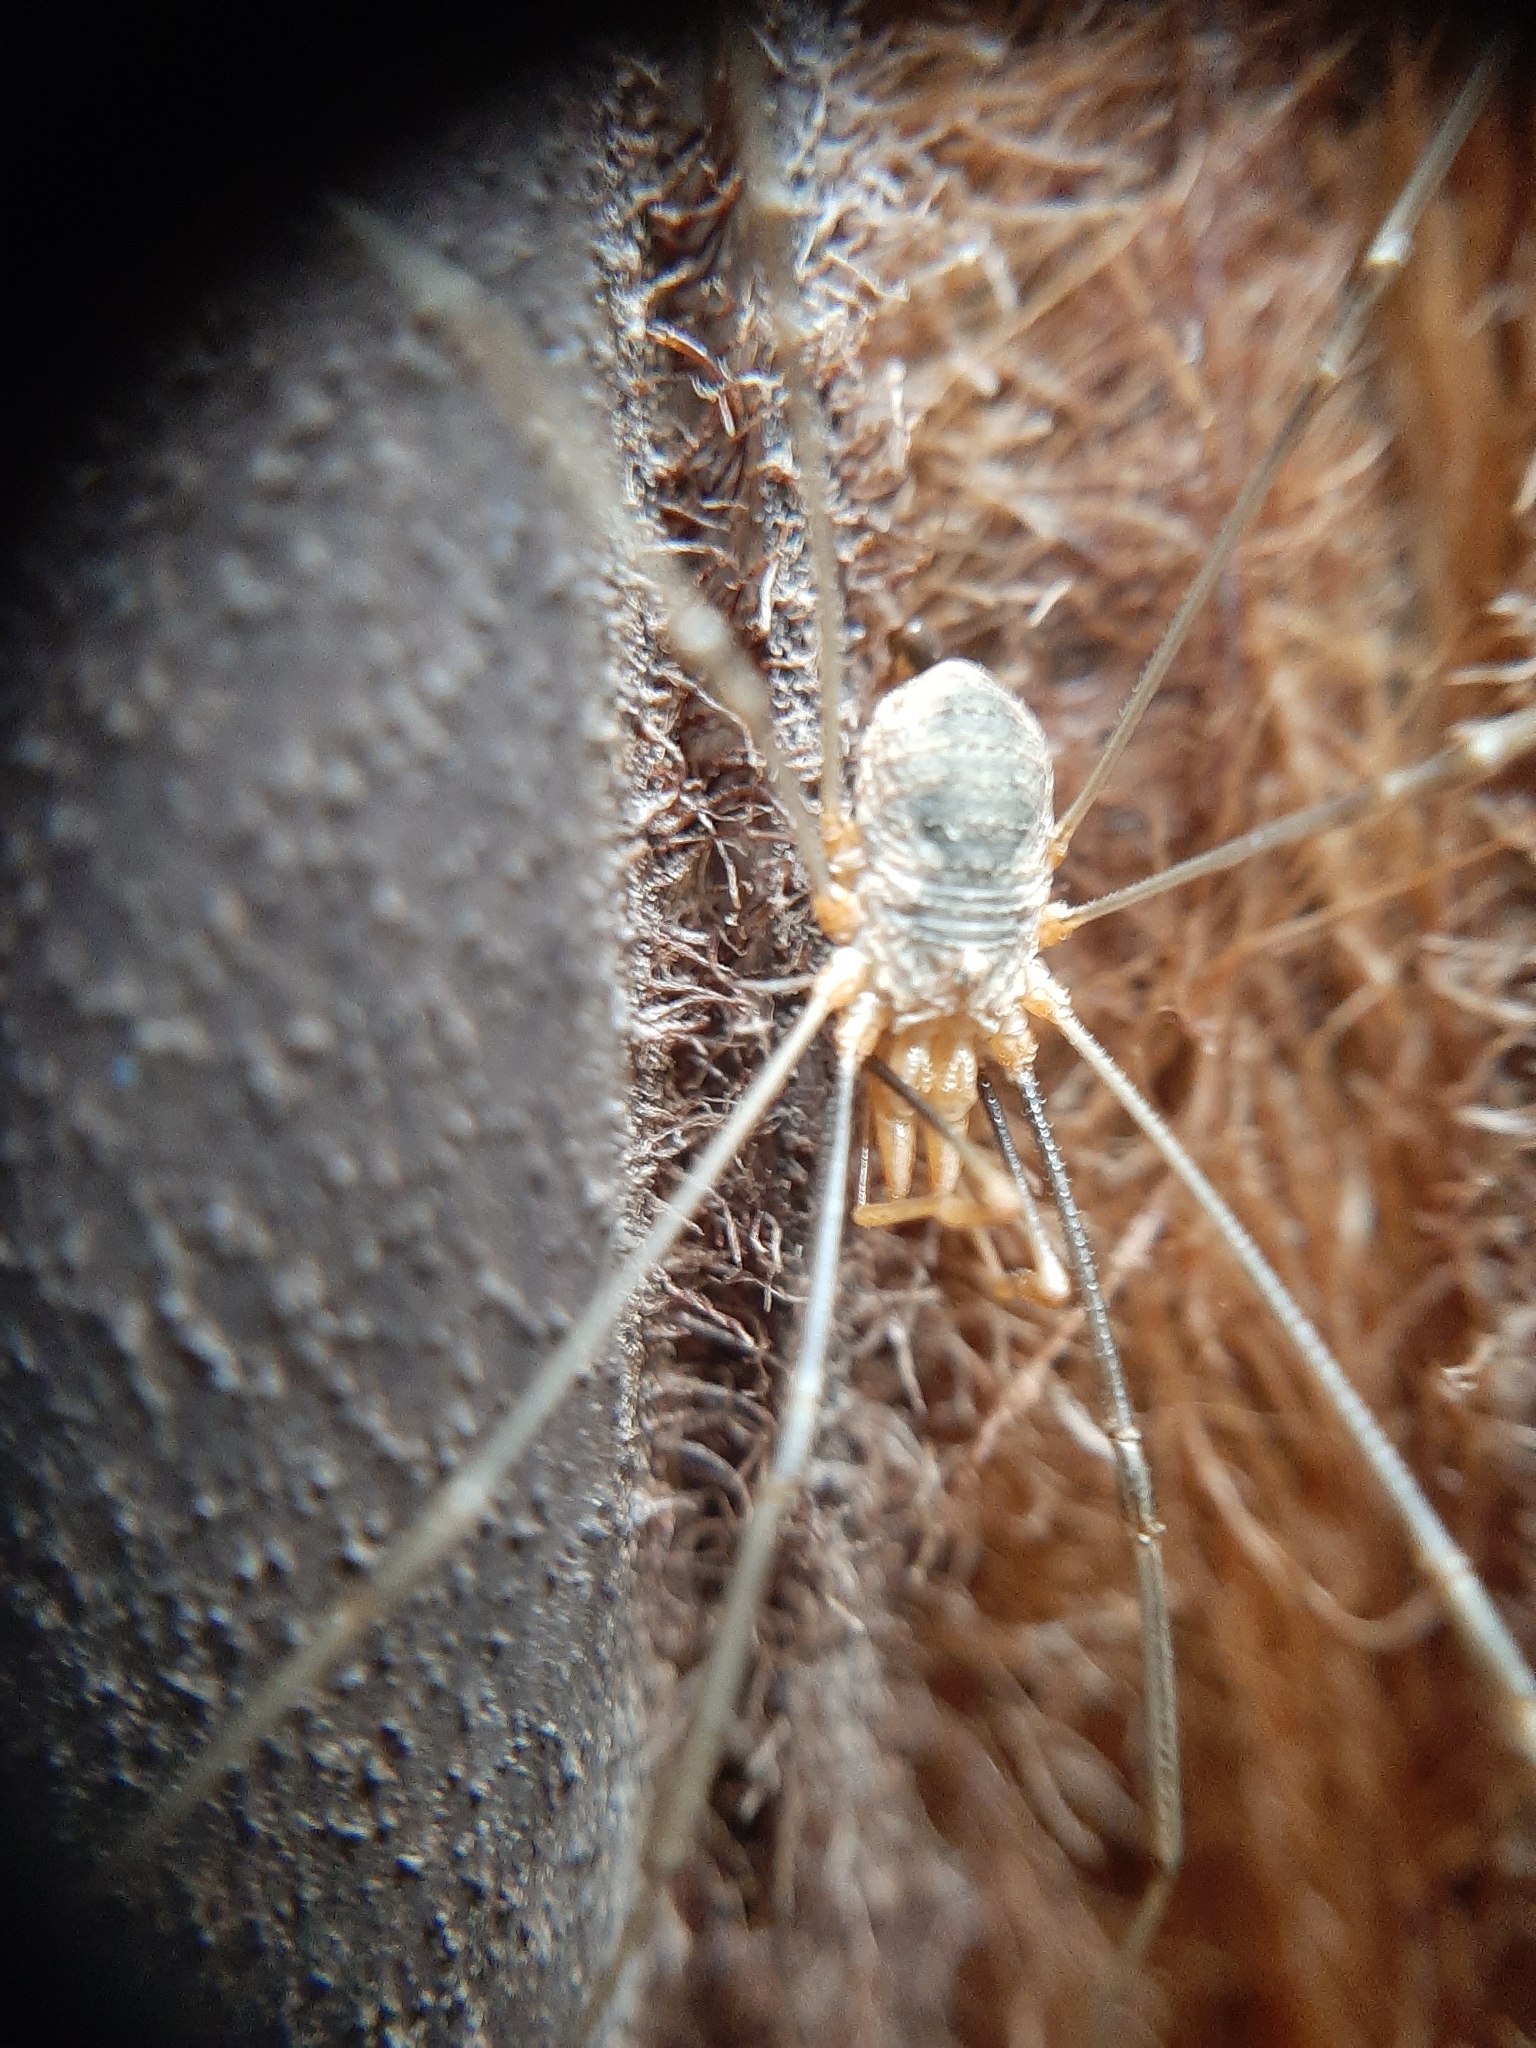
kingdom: Animalia
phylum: Arthropoda
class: Arachnida
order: Opiliones
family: Phalangiidae
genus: Phalangium
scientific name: Phalangium opilio
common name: Daddy longleg
